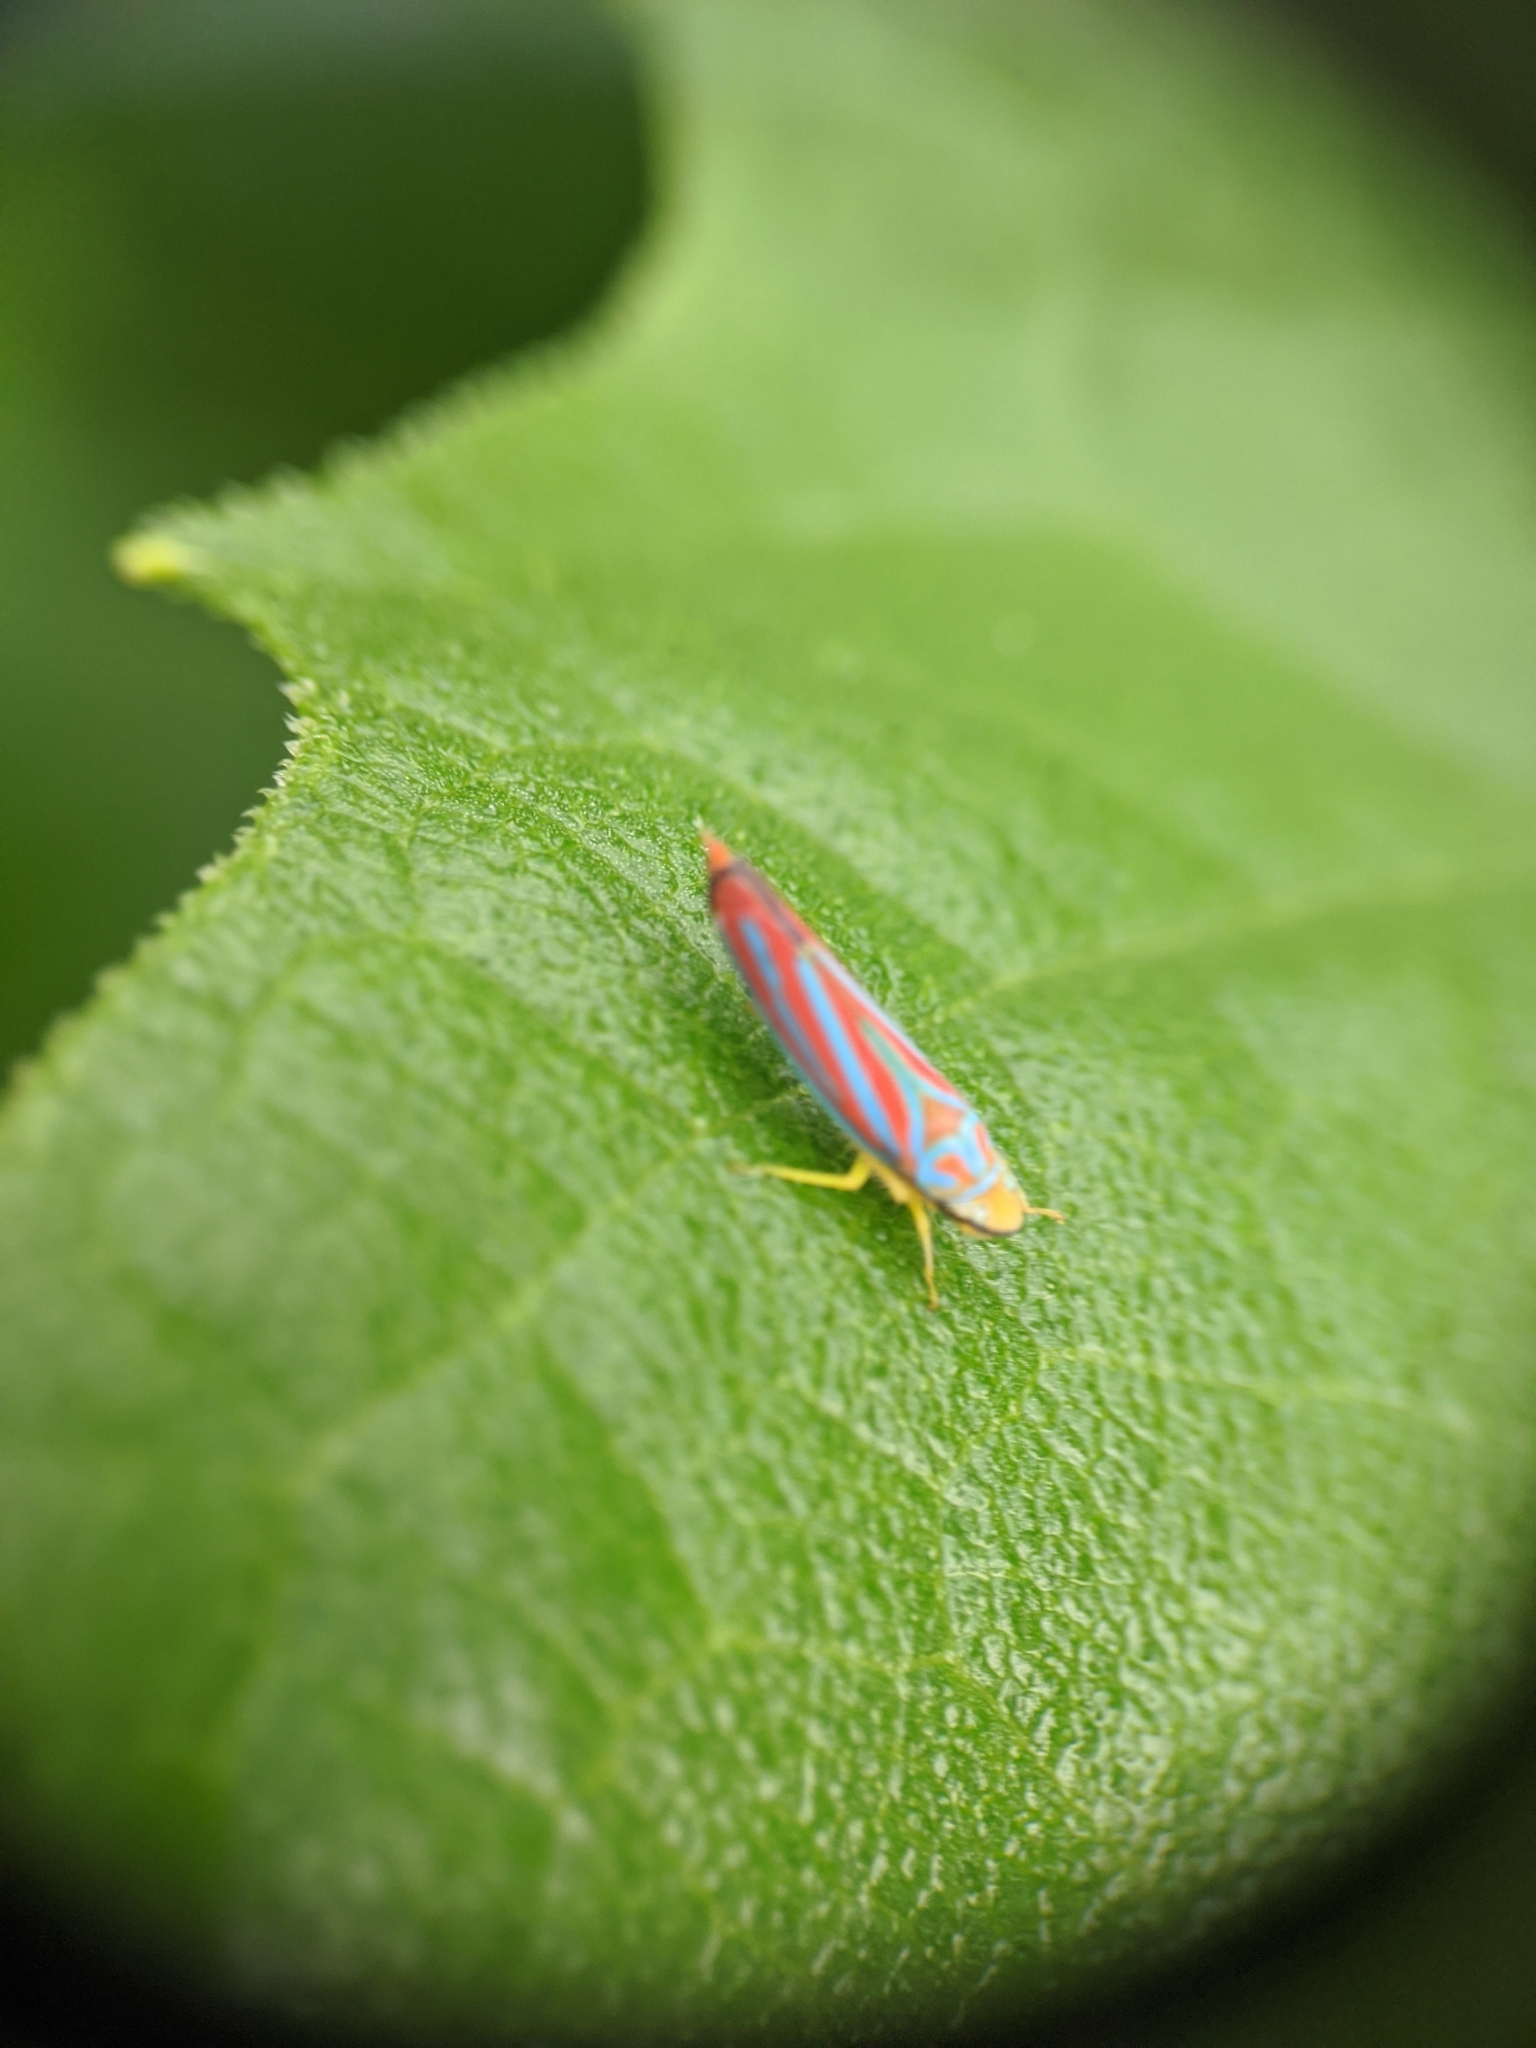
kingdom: Animalia
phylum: Arthropoda
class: Insecta
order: Hemiptera
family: Cicadellidae
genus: Graphocephala
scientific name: Graphocephala coccinea
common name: Candy-striped leafhopper
